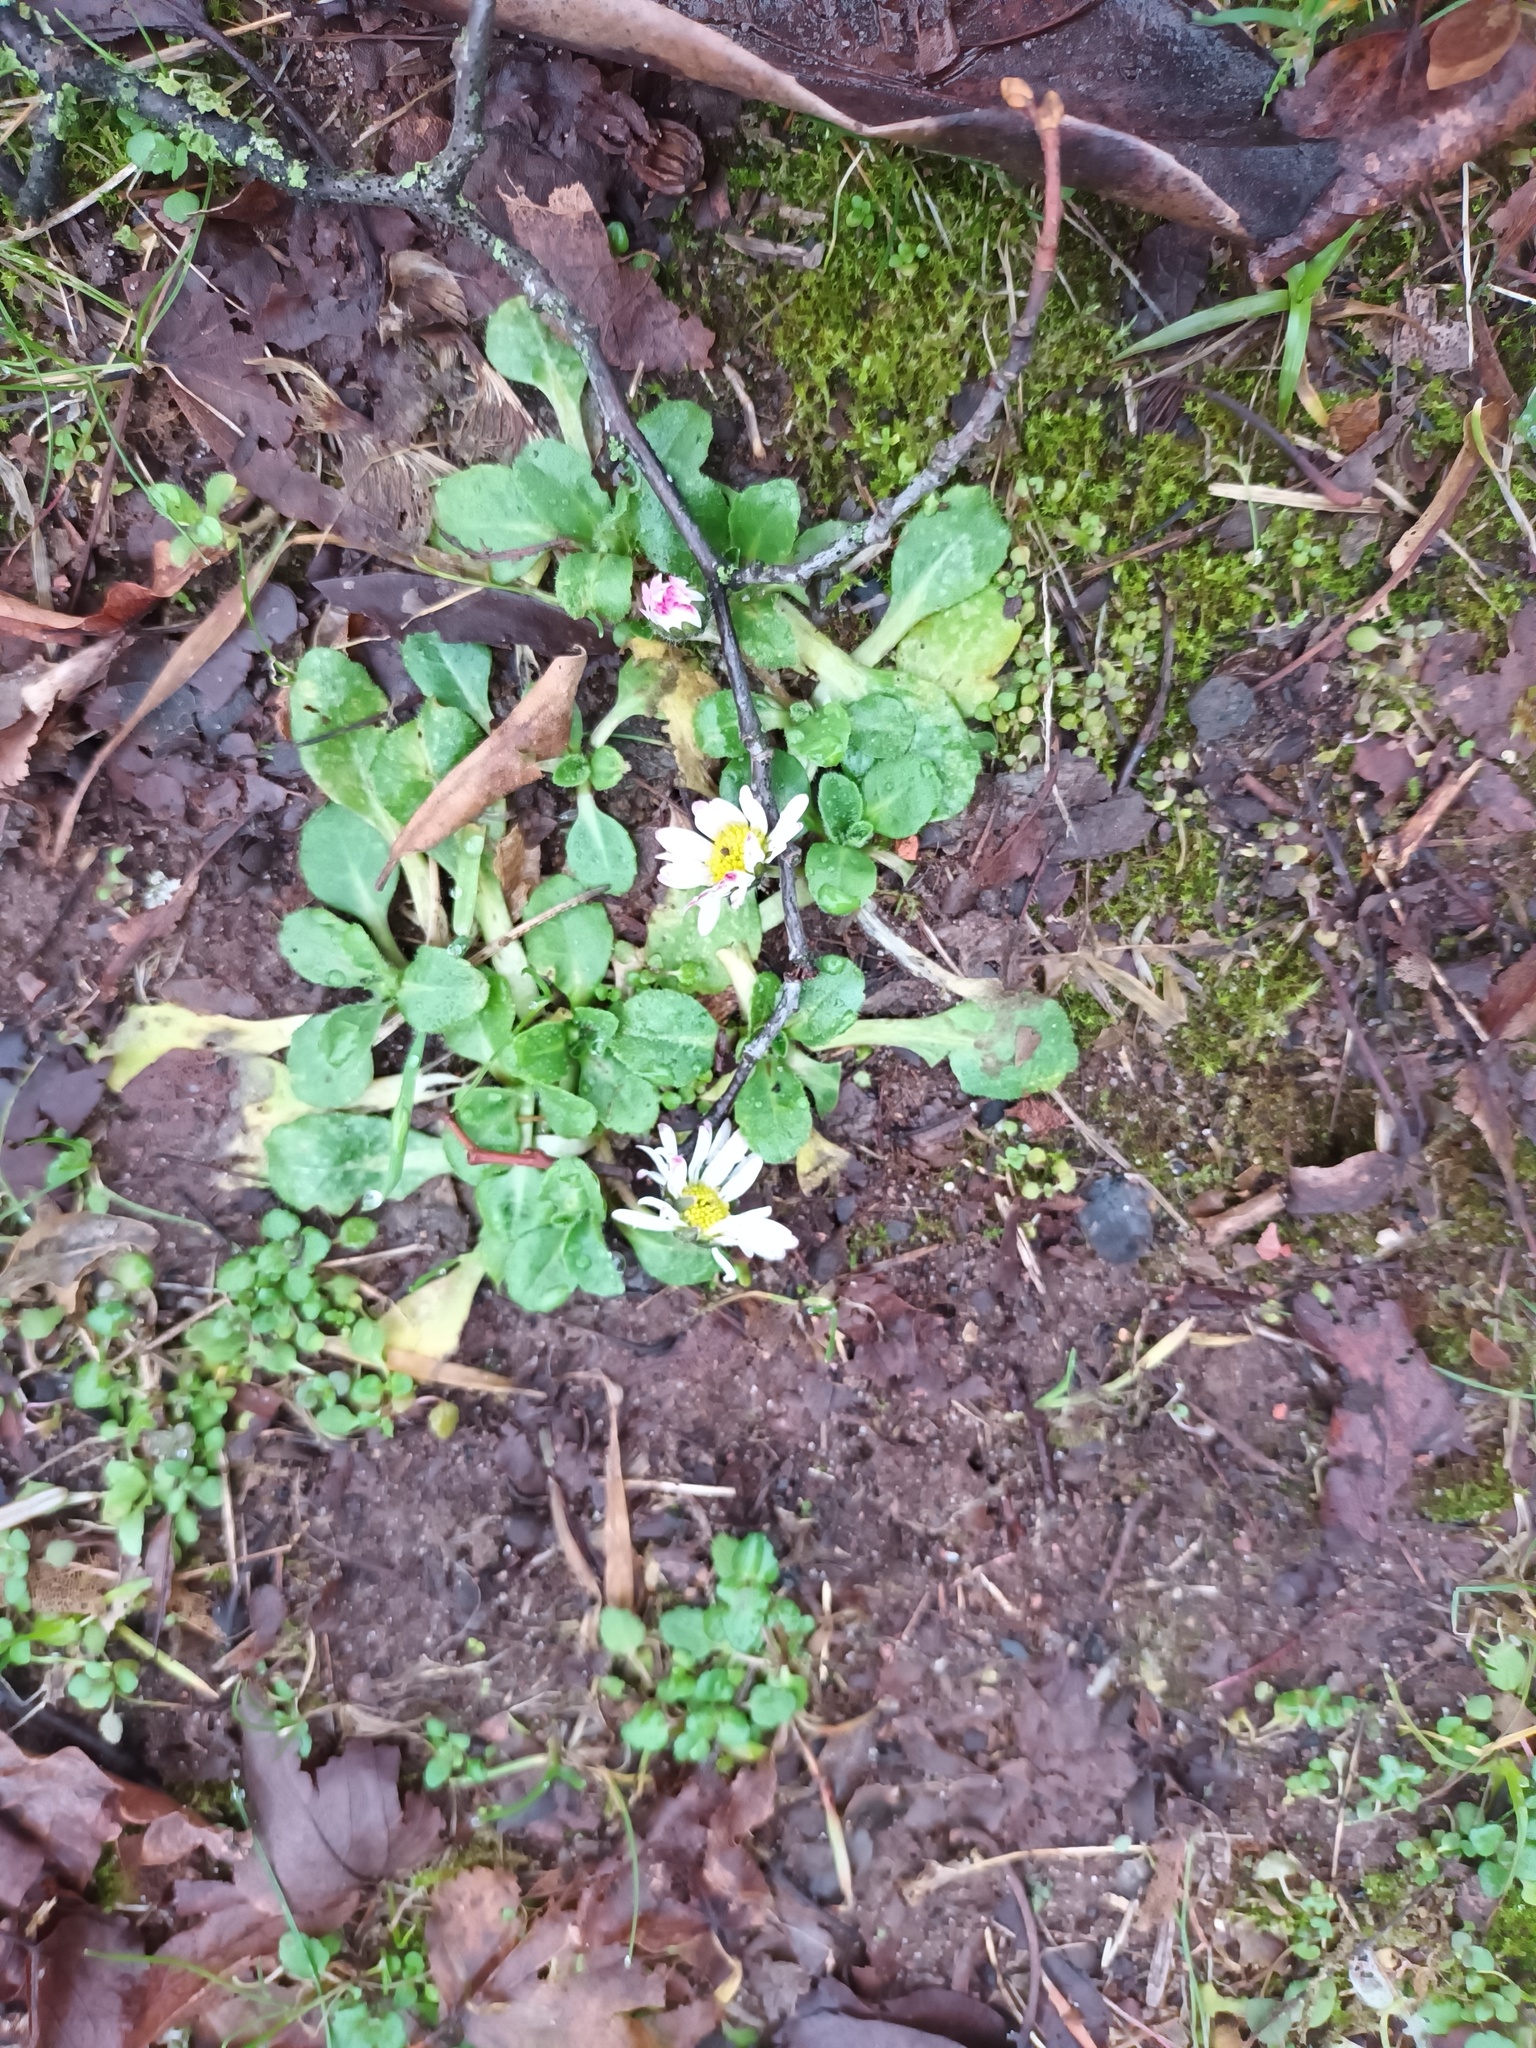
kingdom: Plantae
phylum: Tracheophyta
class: Magnoliopsida
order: Asterales
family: Asteraceae
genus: Bellis
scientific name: Bellis perennis
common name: Lawndaisy
